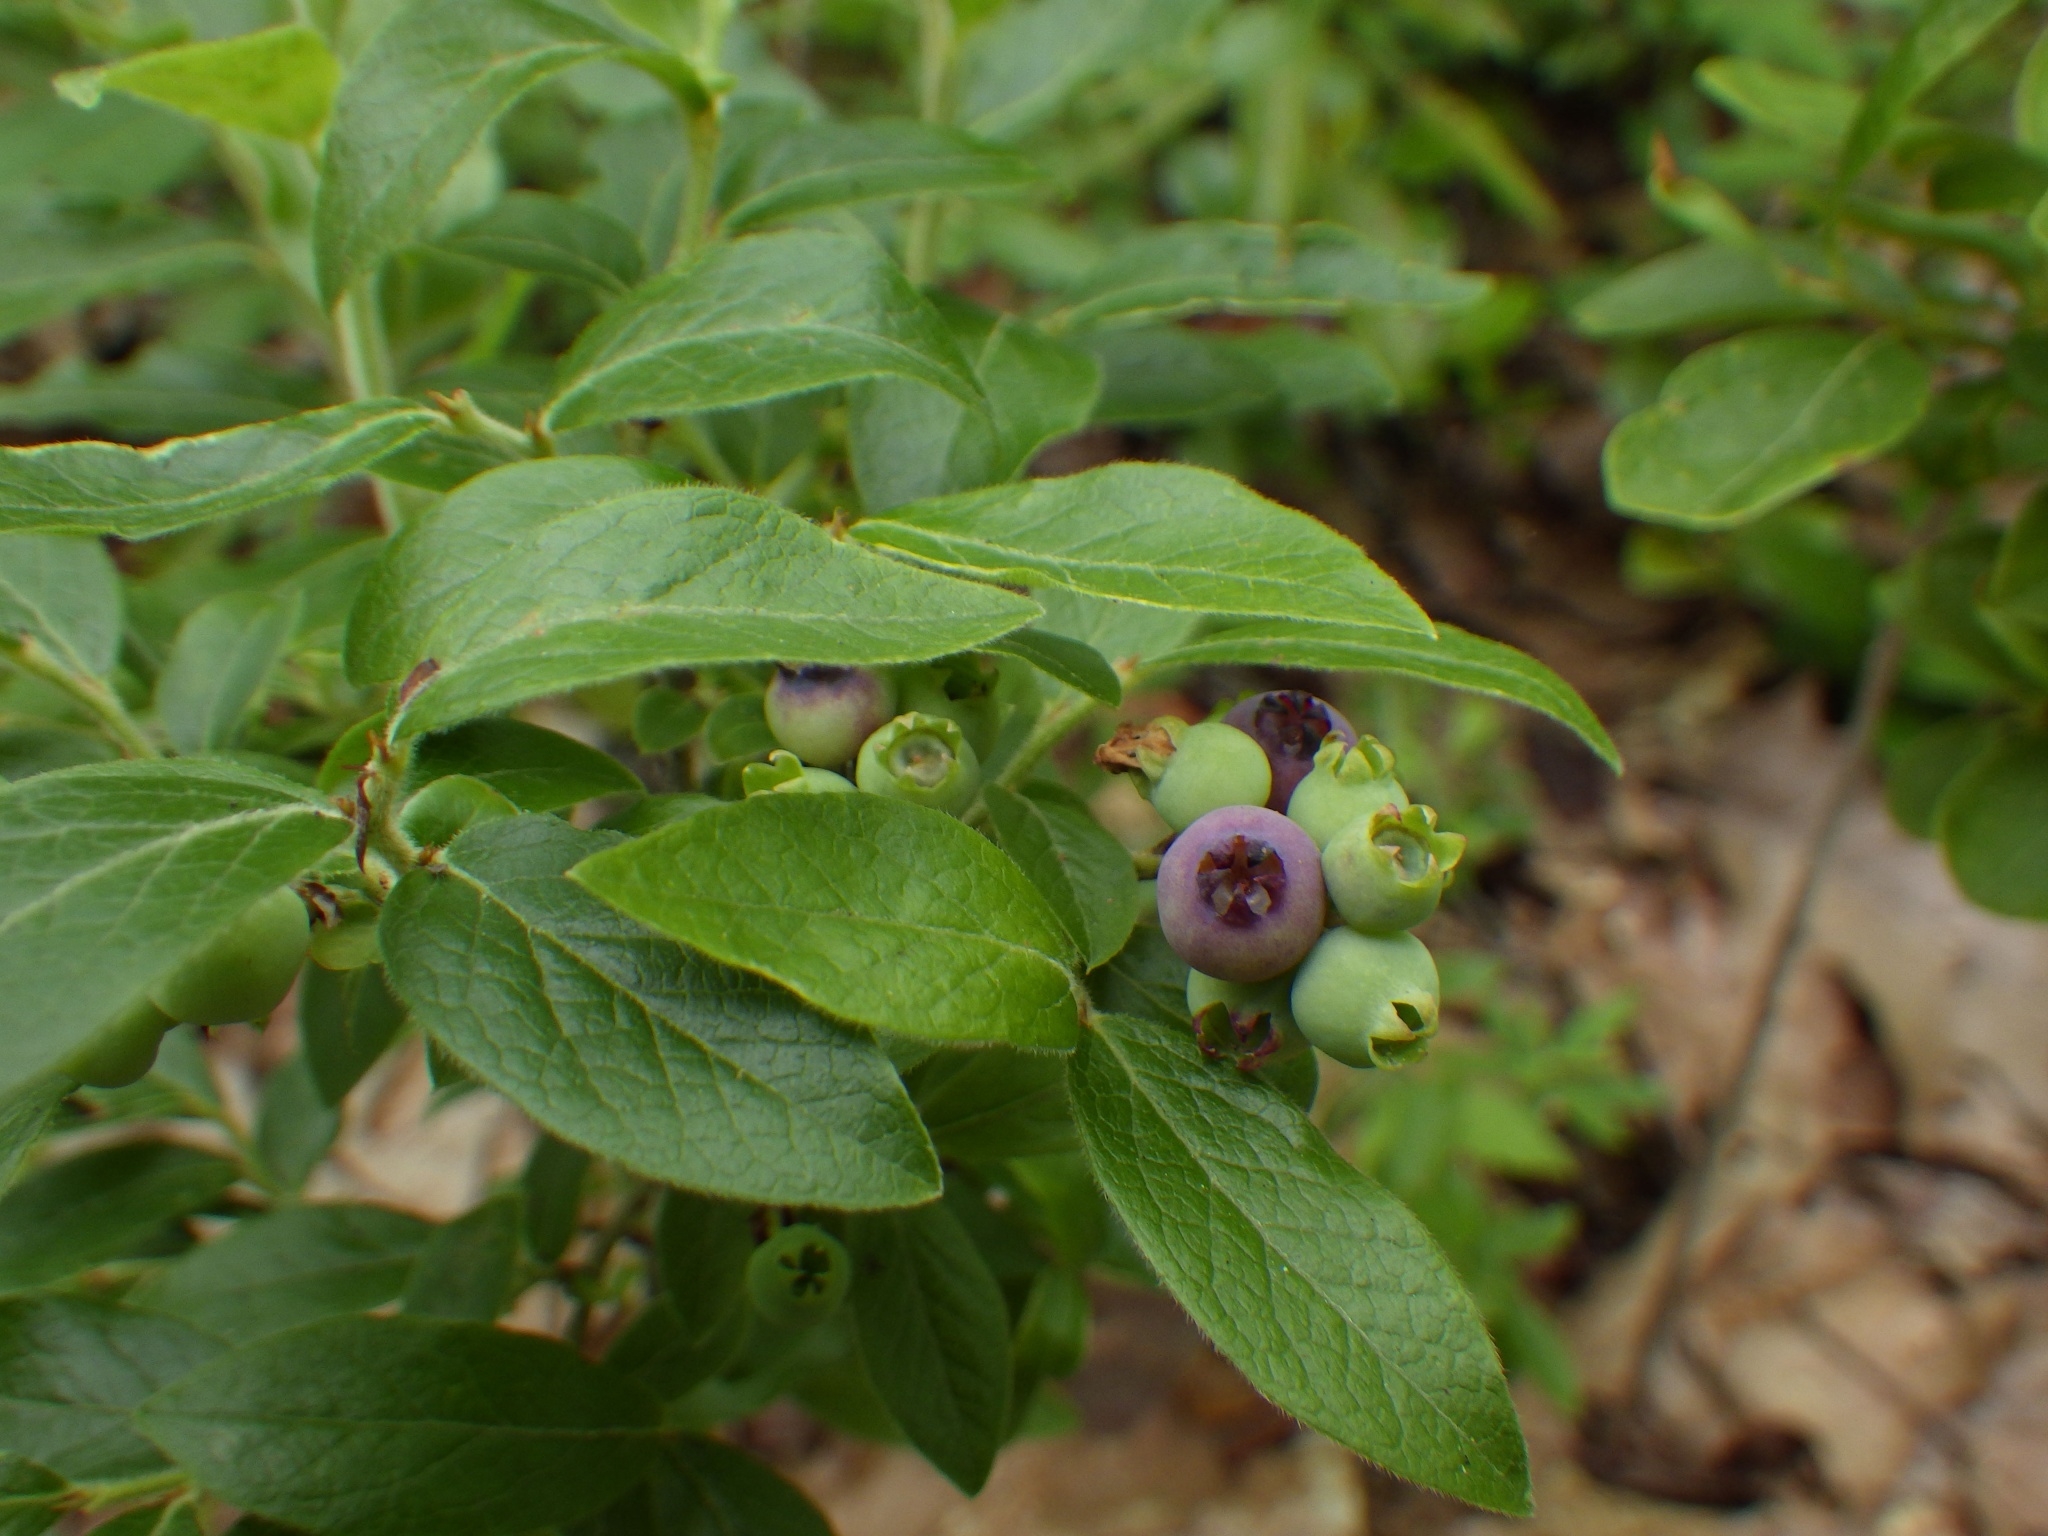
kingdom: Plantae
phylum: Tracheophyta
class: Magnoliopsida
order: Ericales
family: Ericaceae
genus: Vaccinium
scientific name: Vaccinium myrtilloides
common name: Canada blueberry
